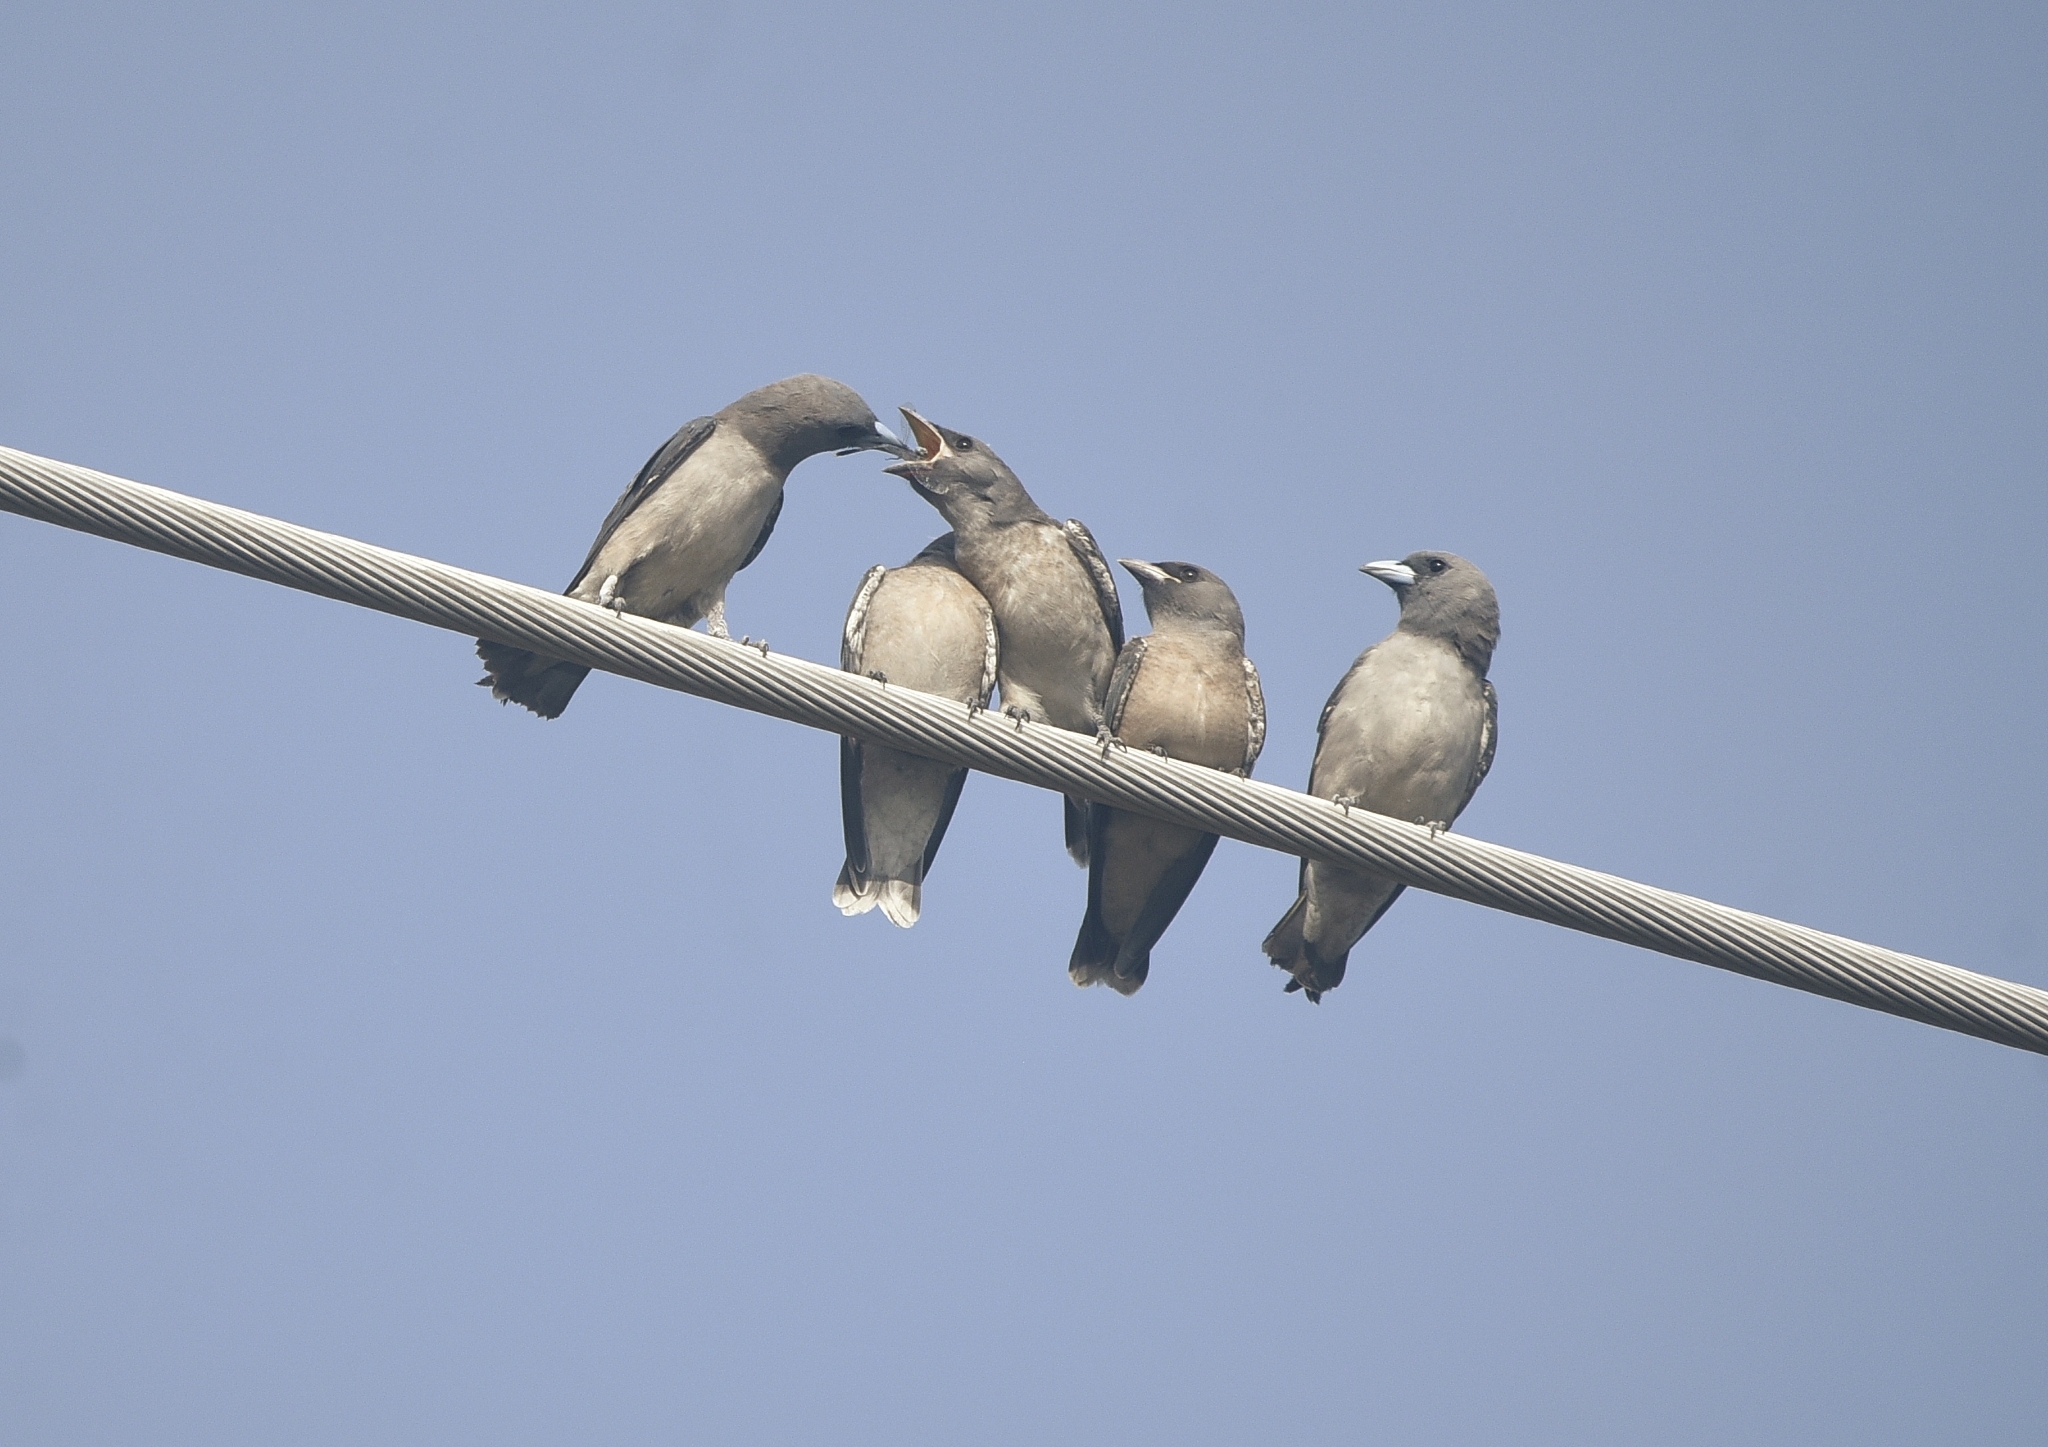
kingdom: Animalia
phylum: Chordata
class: Aves
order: Passeriformes
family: Artamidae
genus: Artamus
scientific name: Artamus fuscus
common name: Ashy woodswallow
